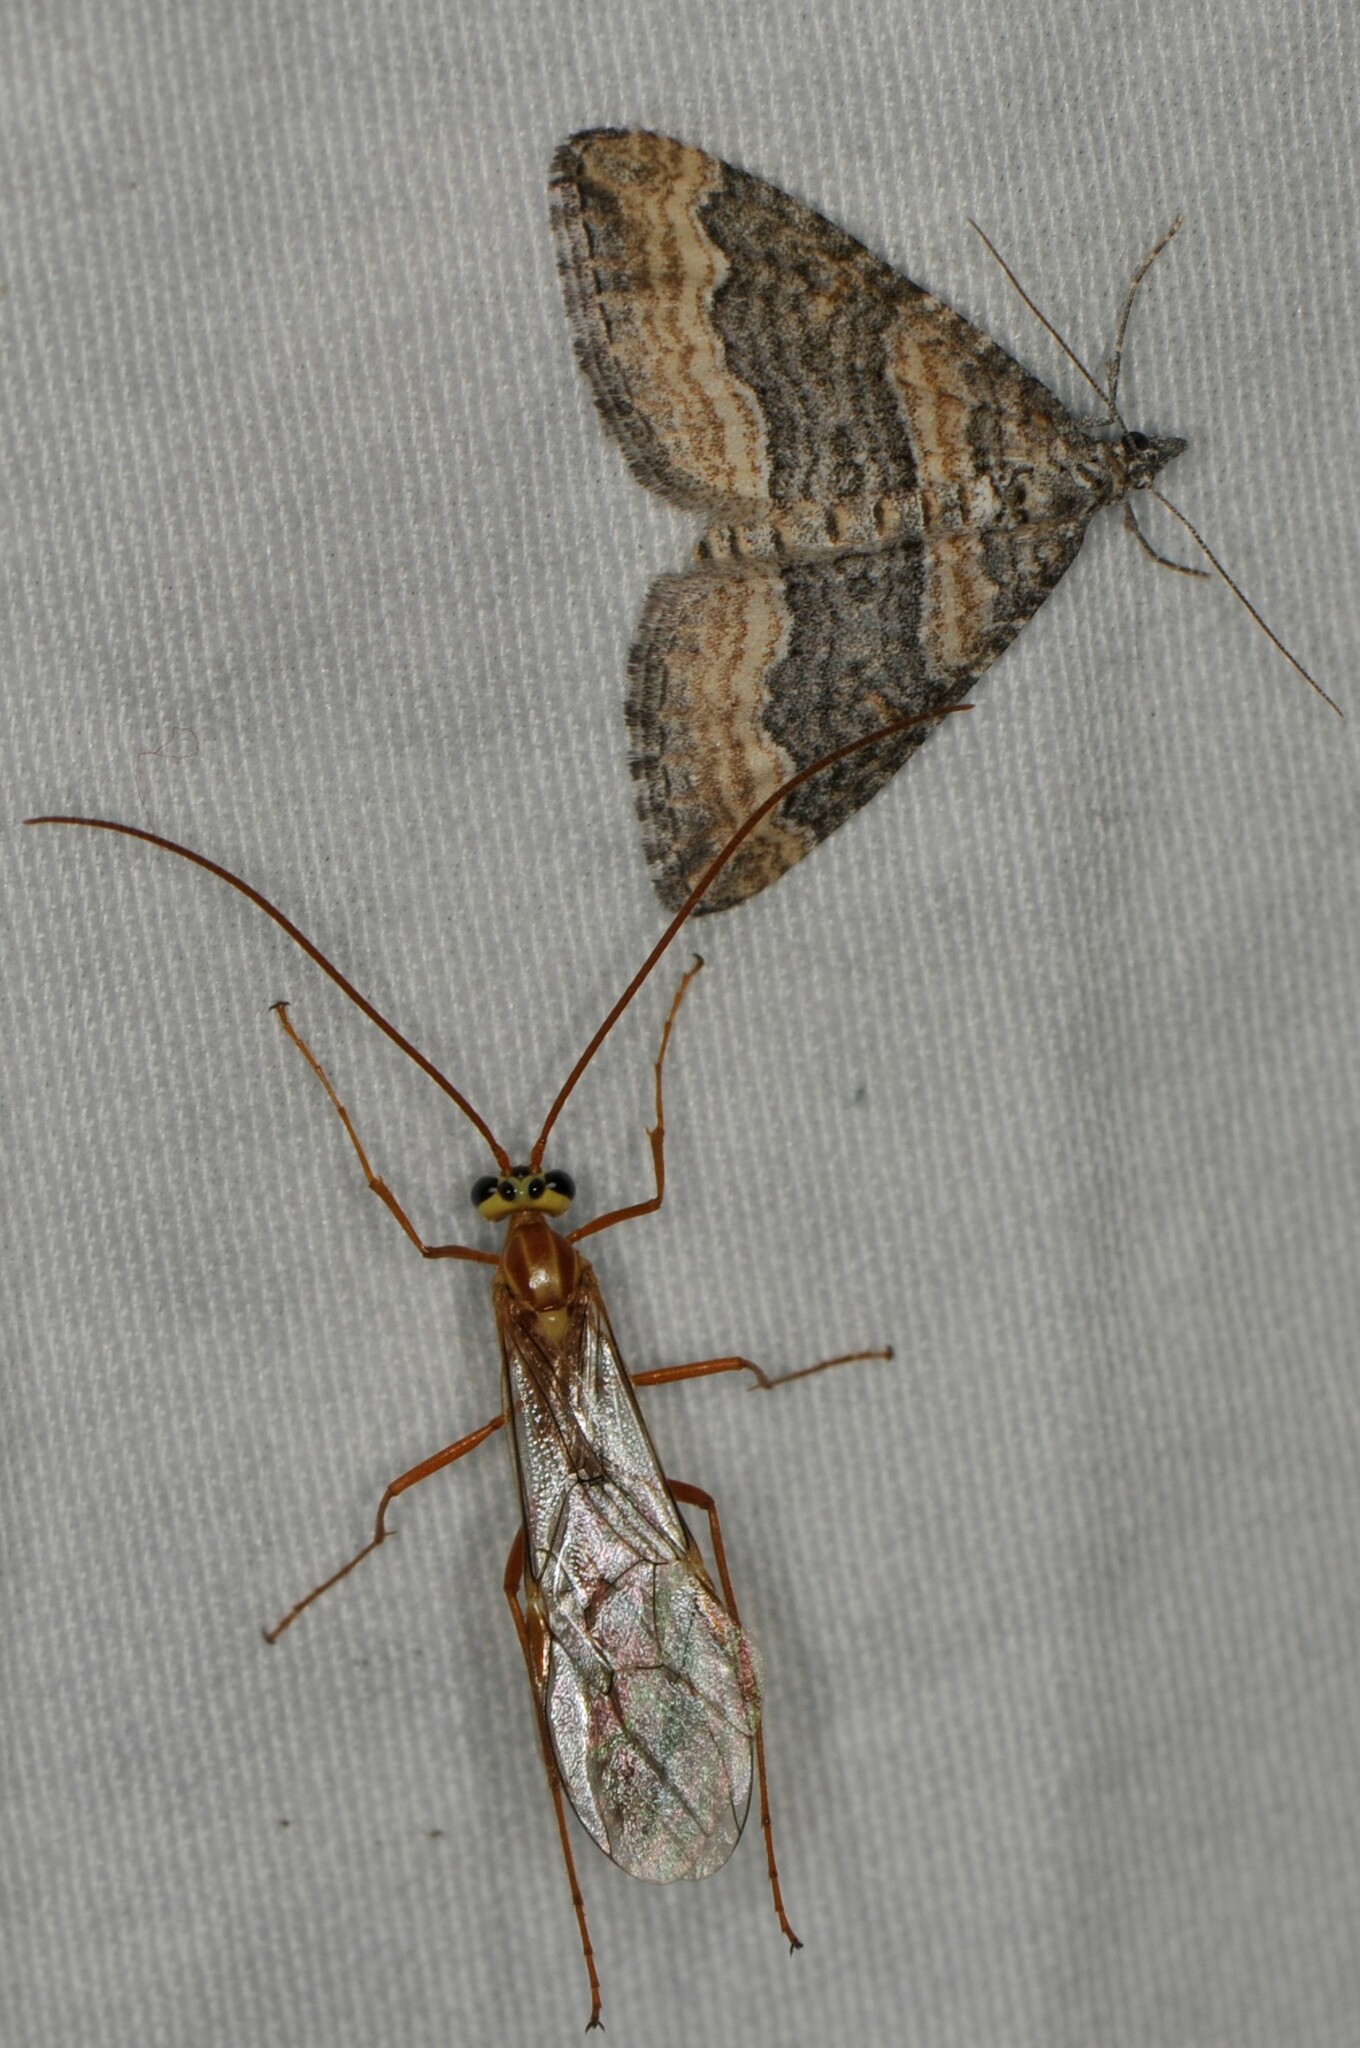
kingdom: Animalia
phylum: Arthropoda
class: Insecta
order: Hymenoptera
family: Ichneumonidae
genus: Ophion
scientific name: Ophion
